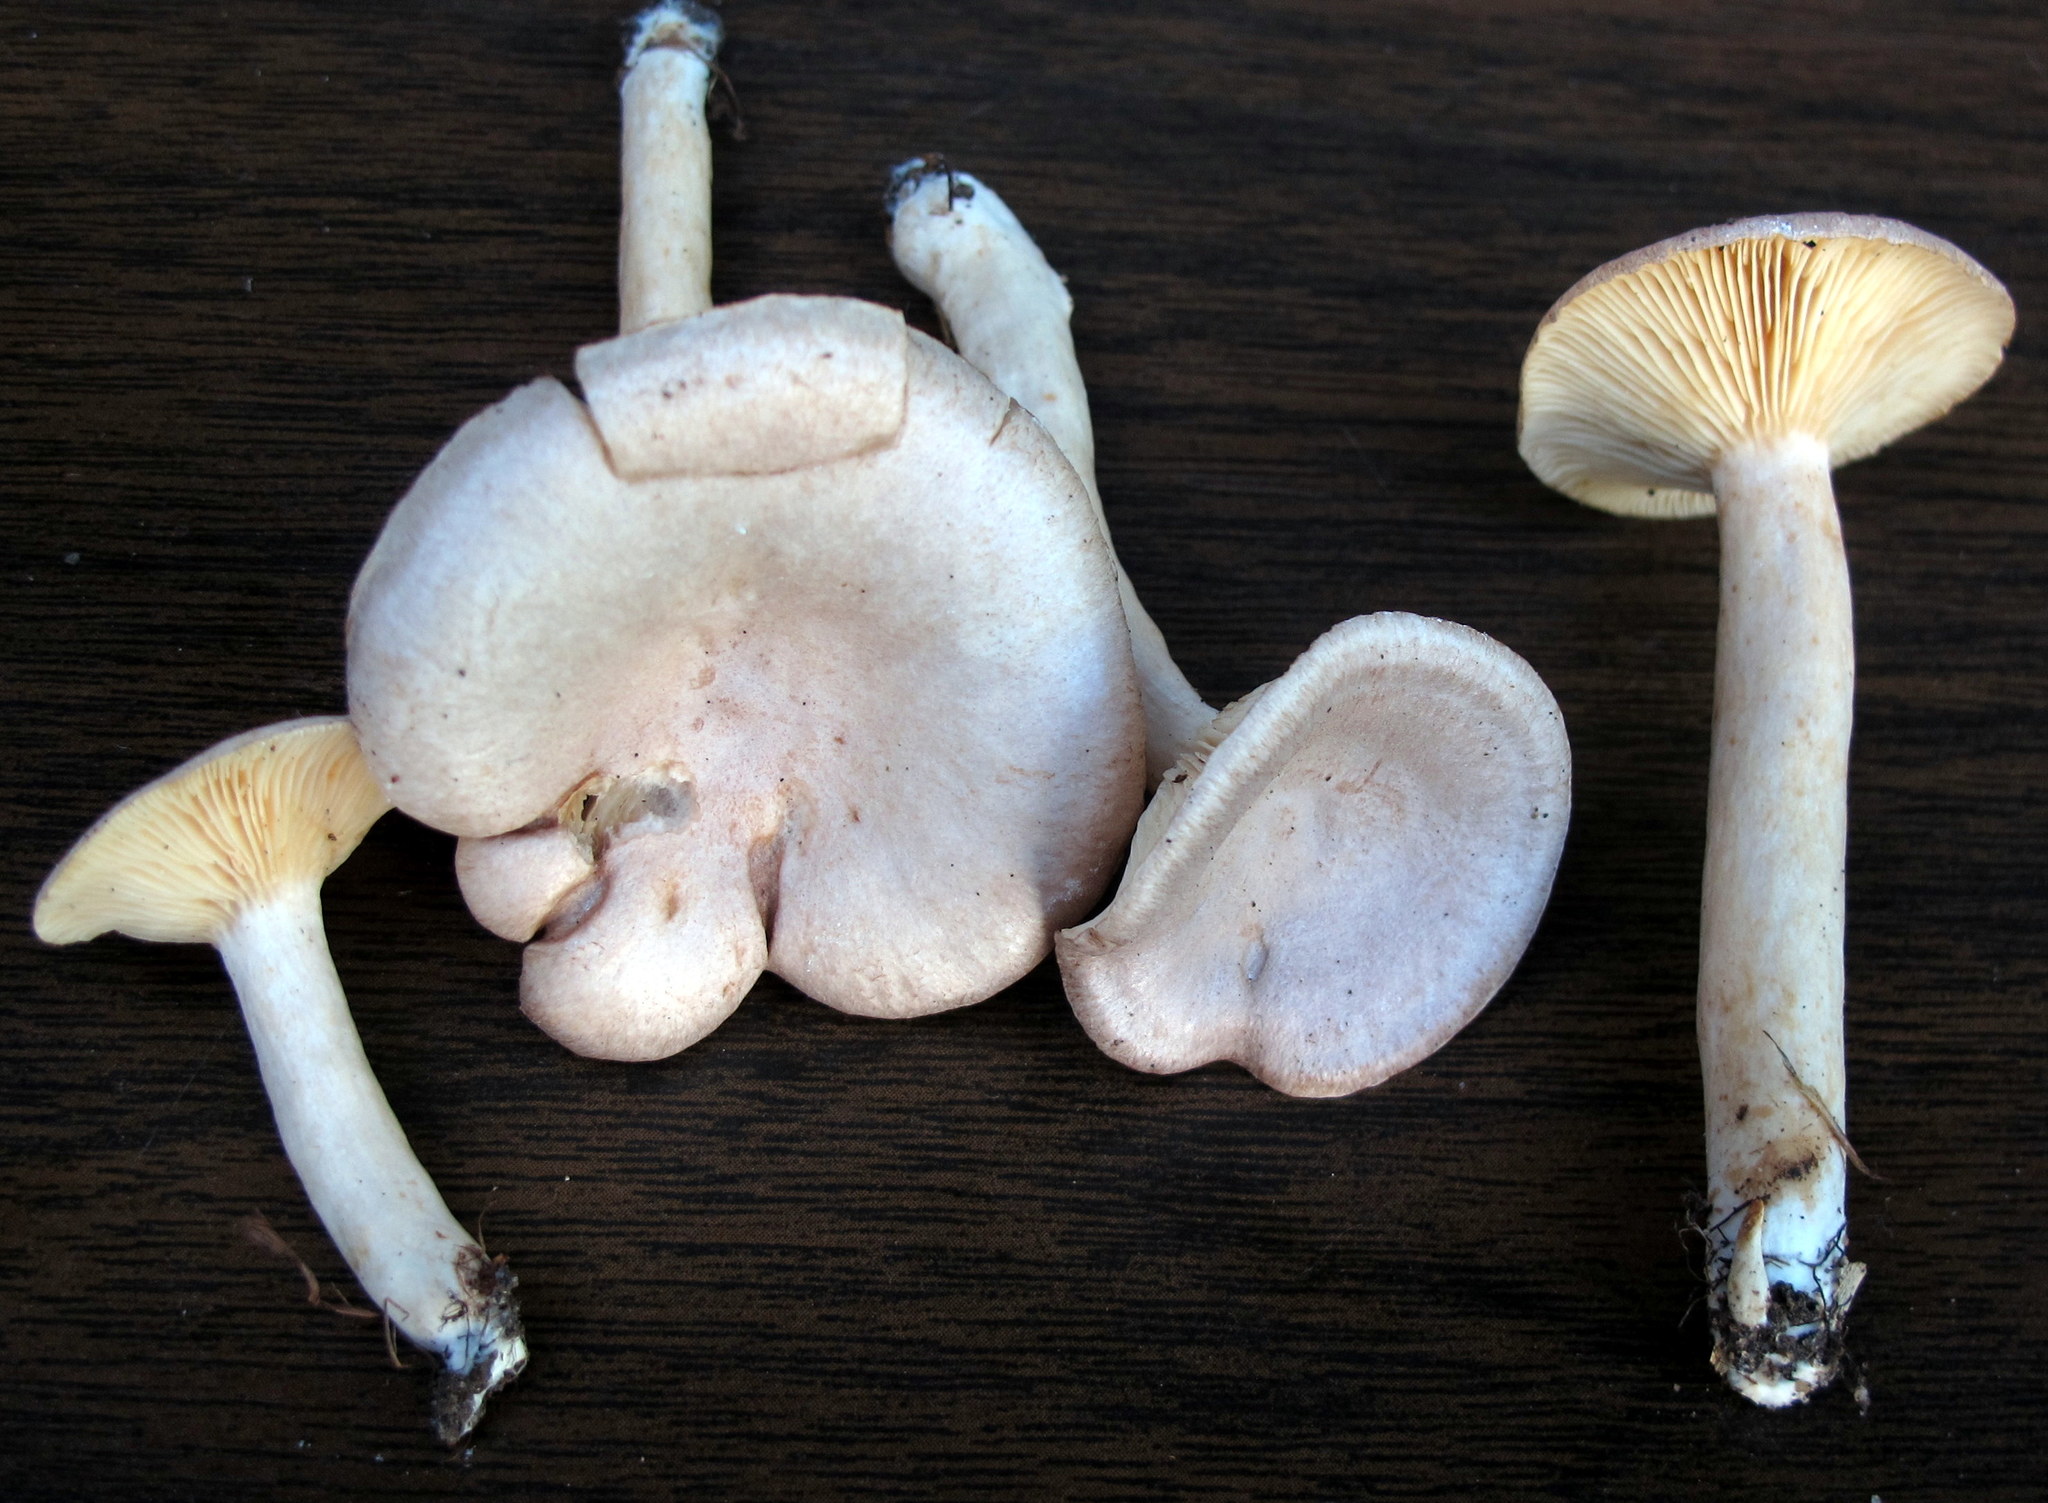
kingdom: Fungi
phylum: Basidiomycota
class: Agaricomycetes
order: Russulales
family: Russulaceae
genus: Lactarius
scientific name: Lactarius glyciosmus
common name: Coconut milkcap
